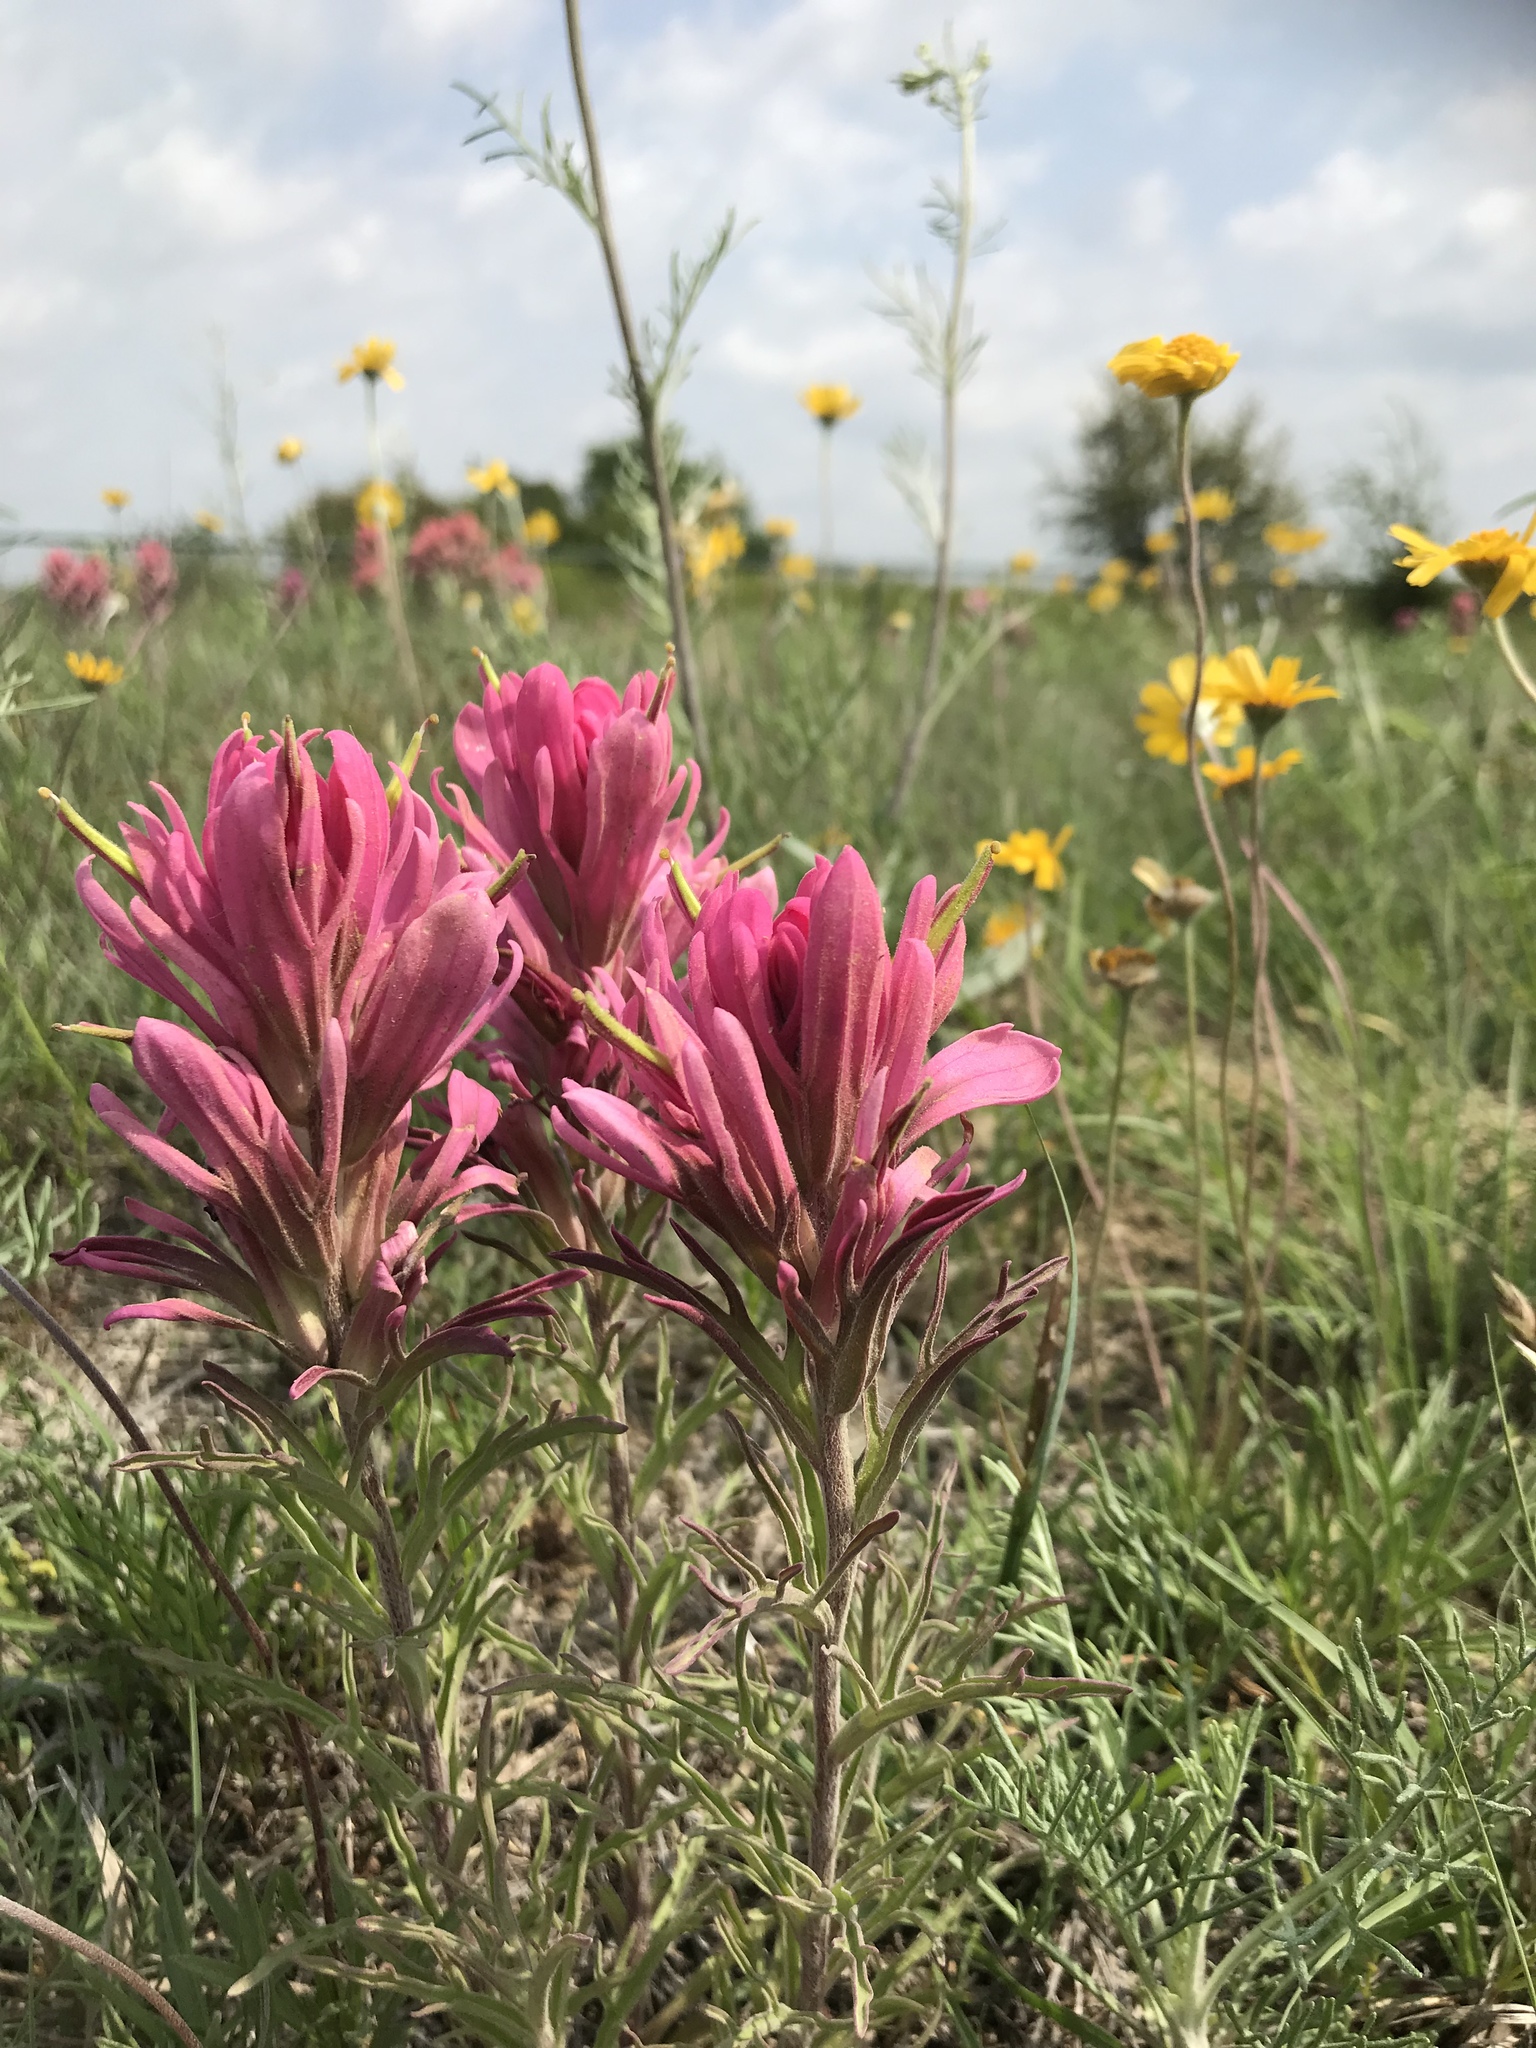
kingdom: Plantae
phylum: Tracheophyta
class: Magnoliopsida
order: Lamiales
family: Orobanchaceae
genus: Castilleja
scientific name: Castilleja purpurea
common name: Plains paintbrush
